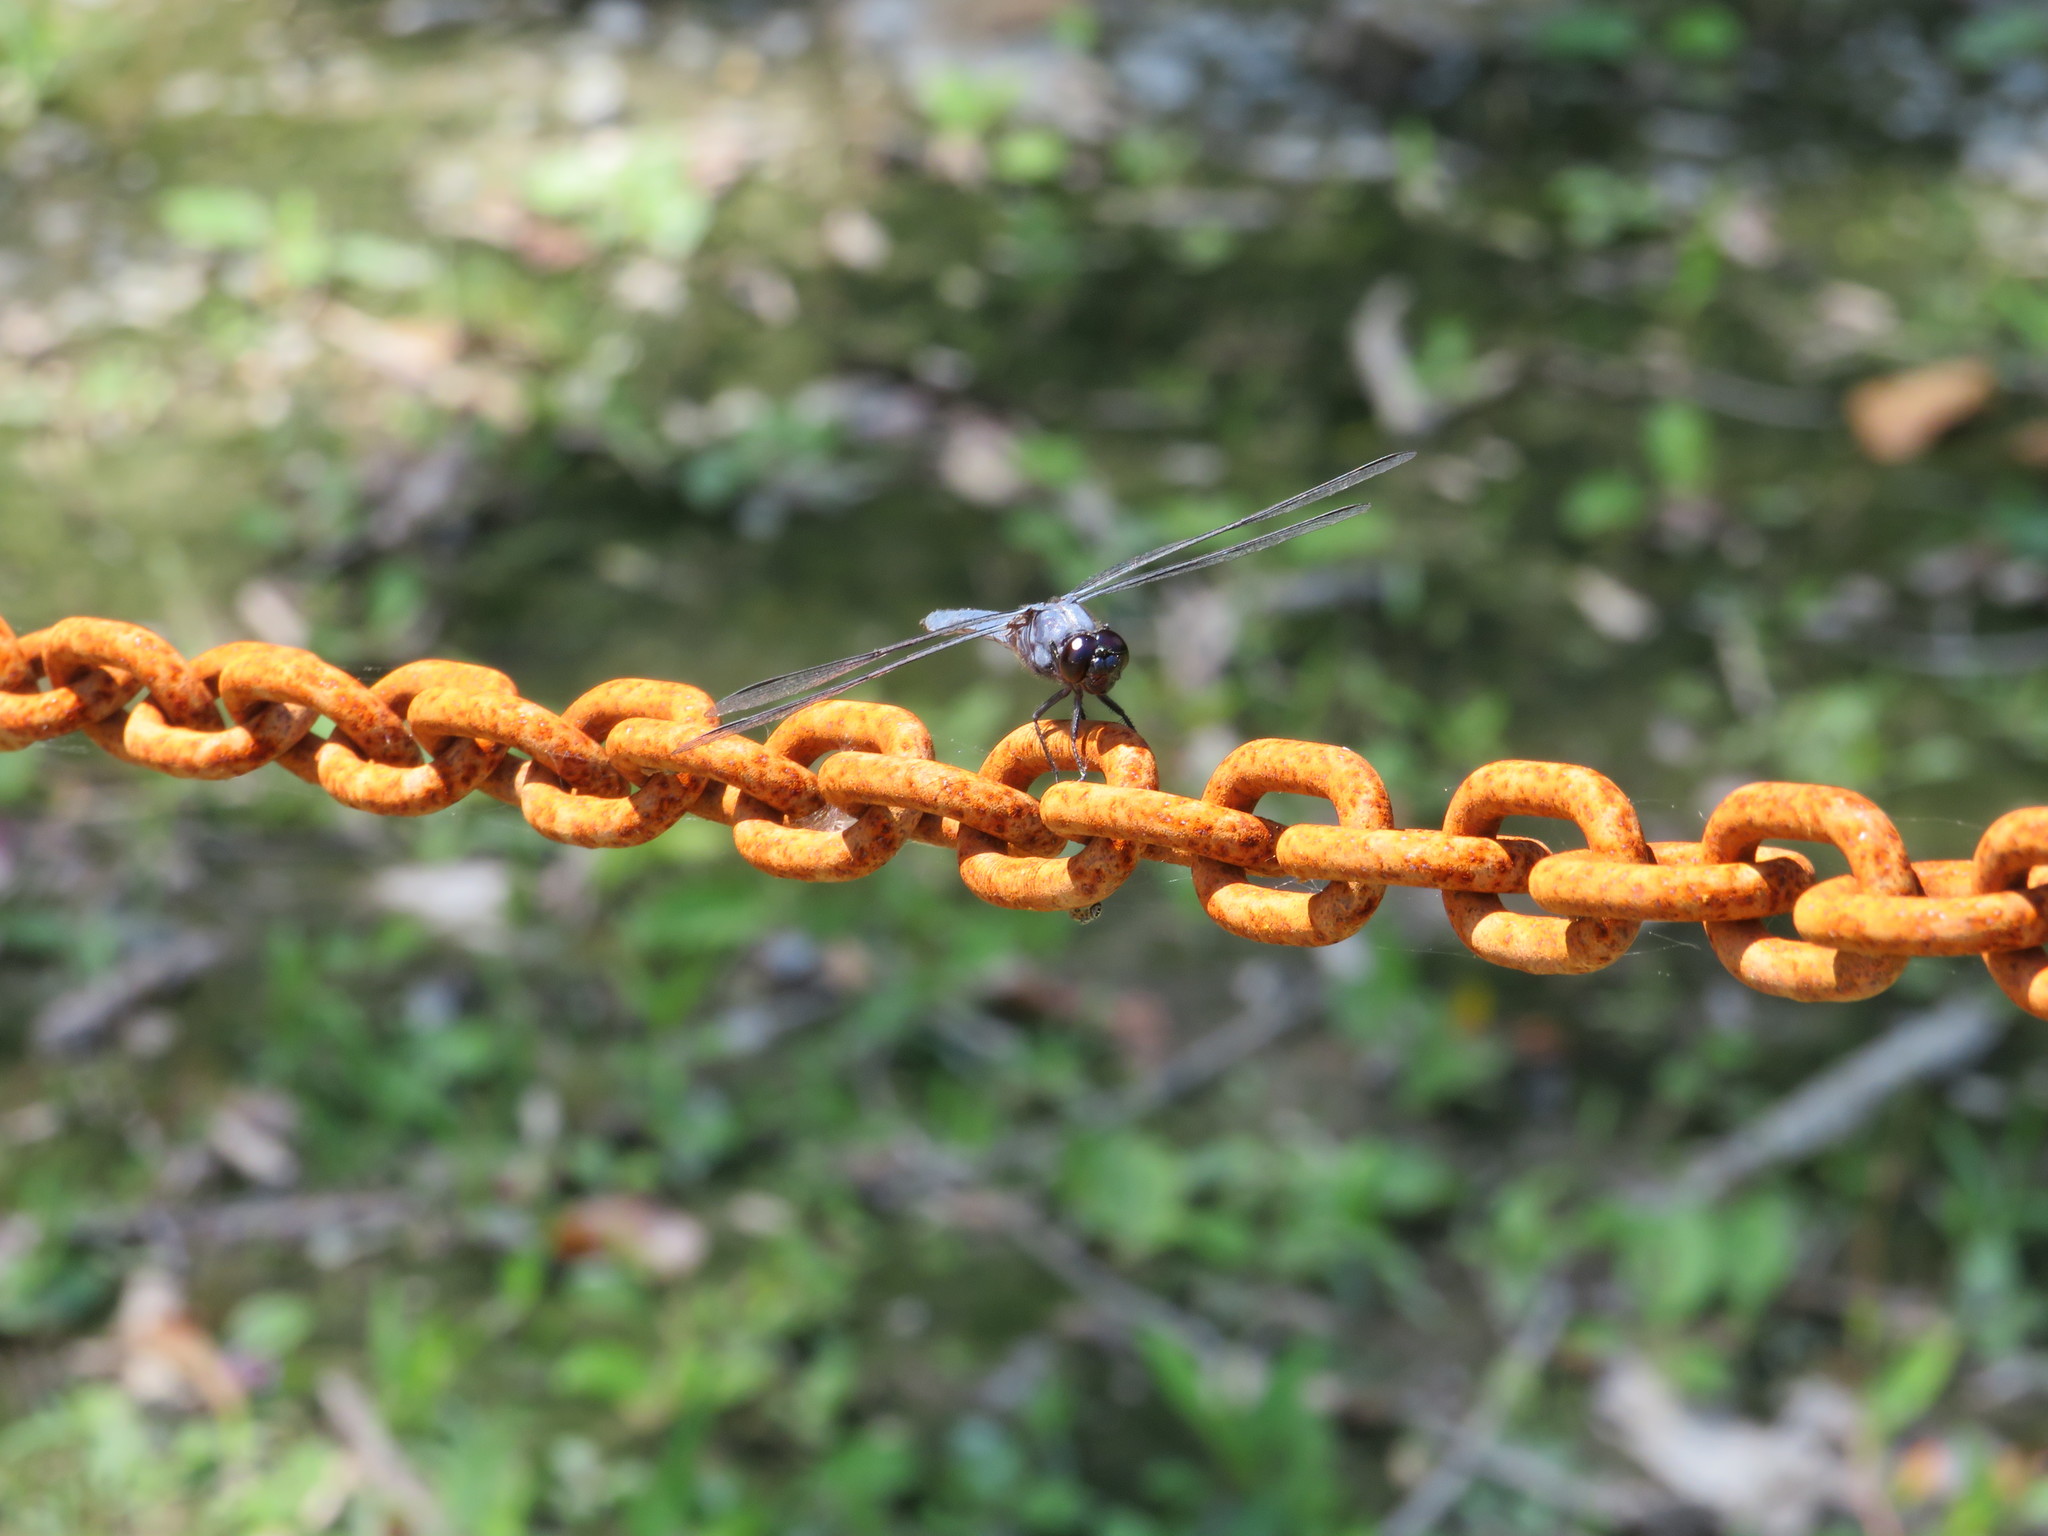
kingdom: Animalia
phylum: Arthropoda
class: Insecta
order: Odonata
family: Libellulidae
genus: Libellula
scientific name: Libellula incesta
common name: Slaty skimmer
